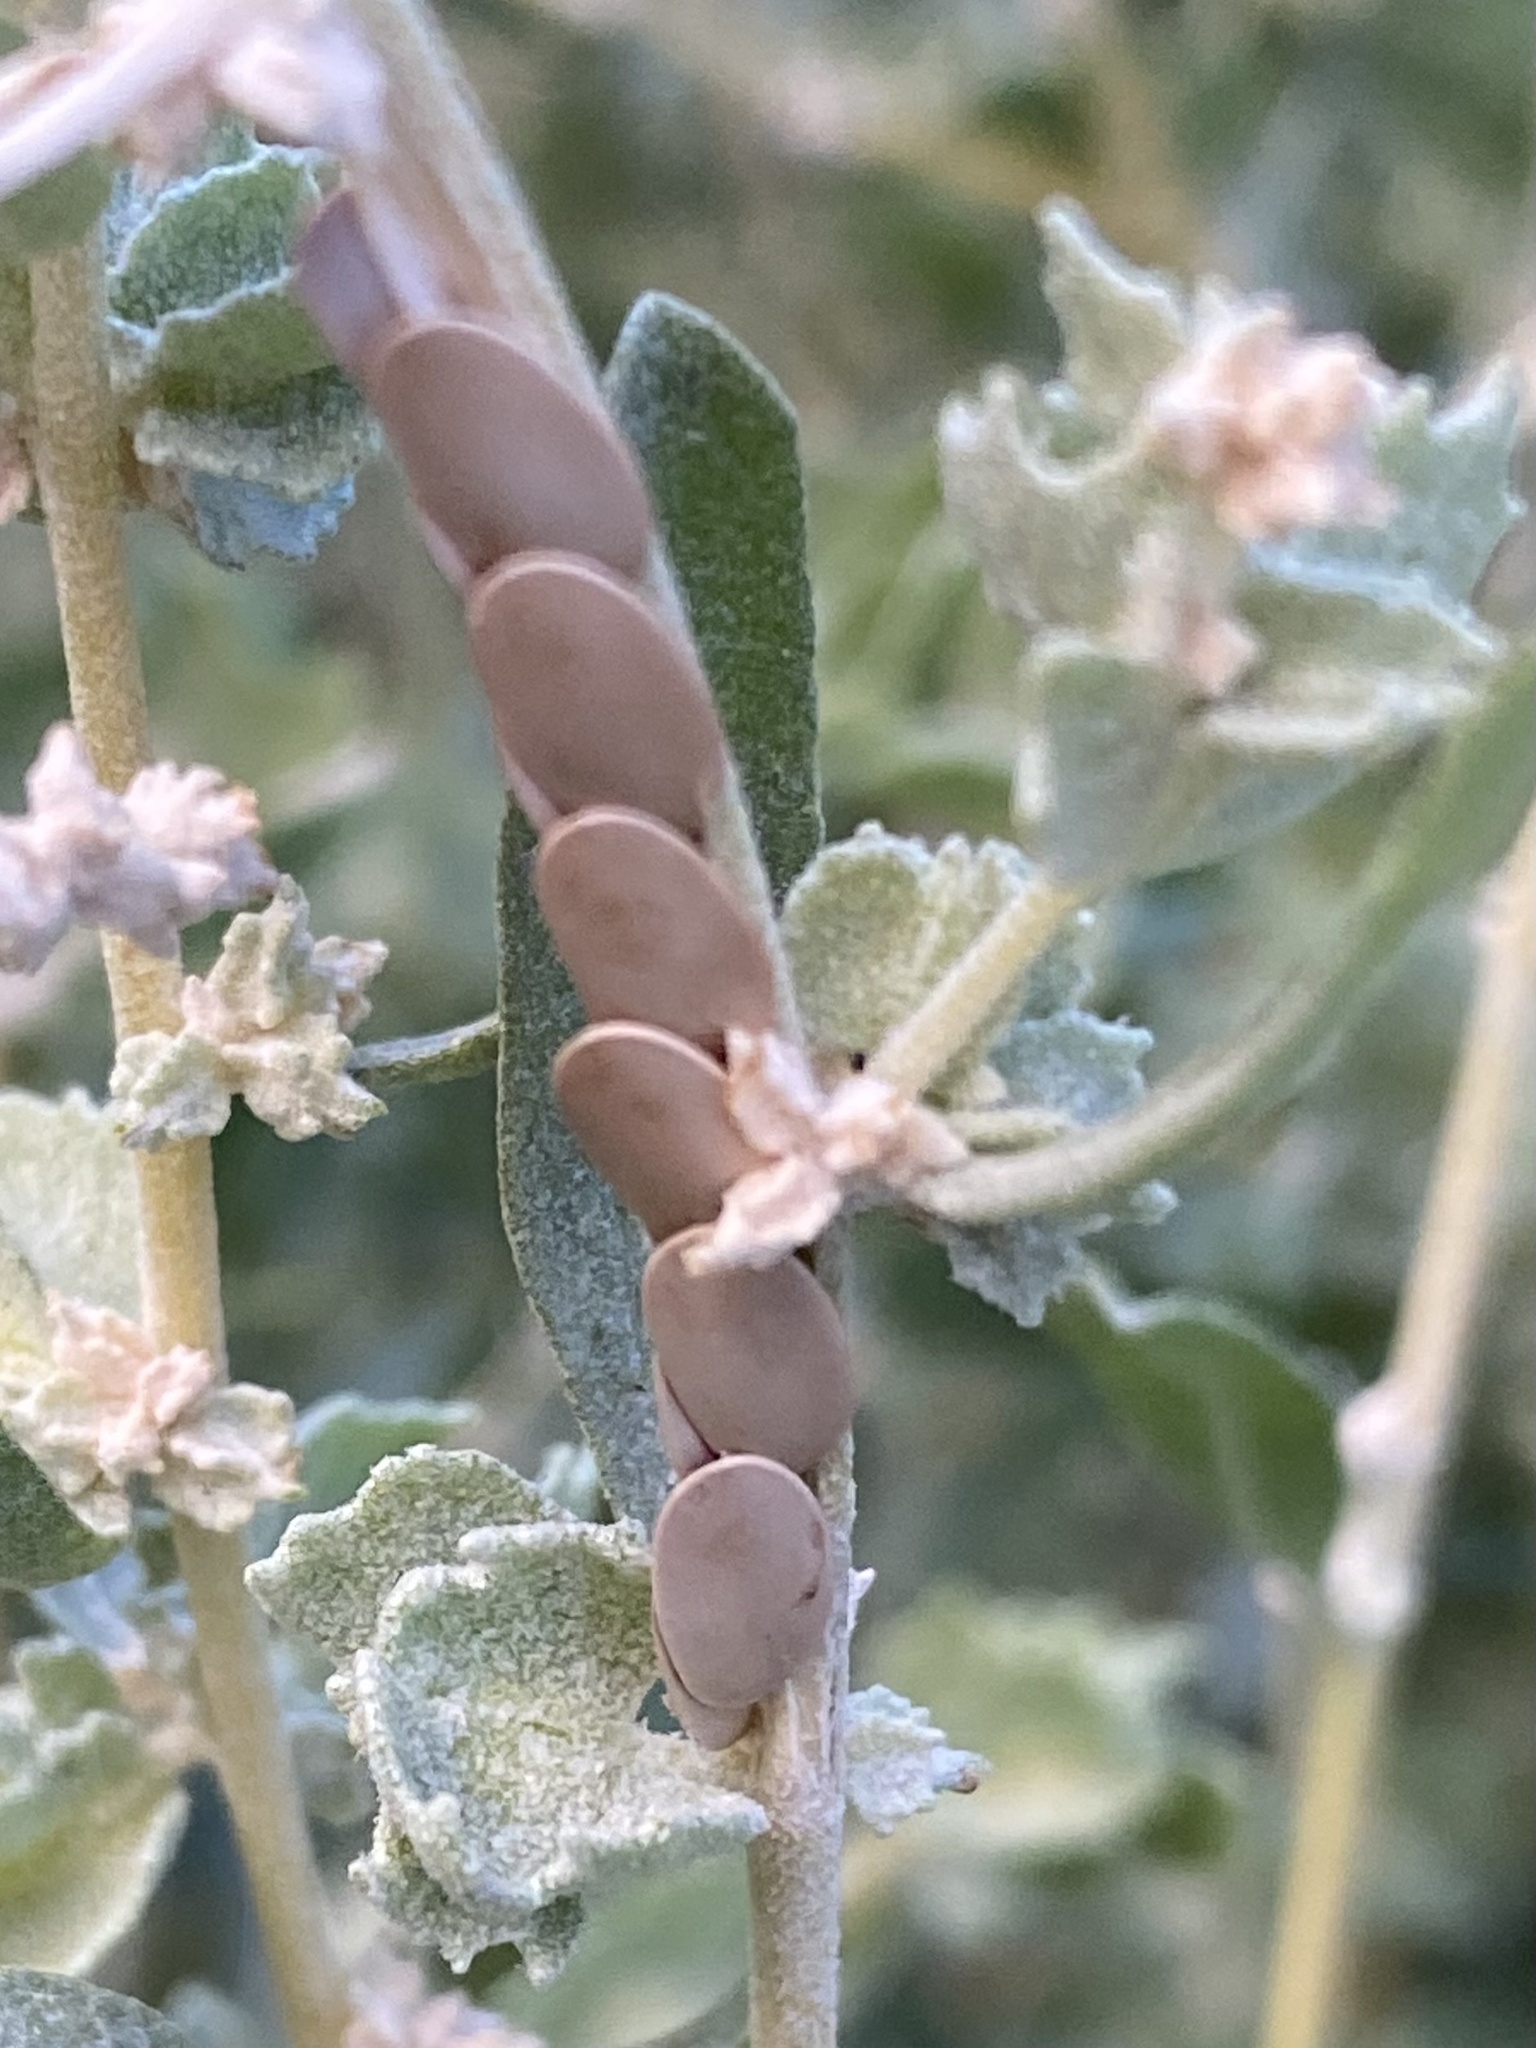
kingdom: Animalia
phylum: Arthropoda
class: Insecta
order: Orthoptera
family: Tettigoniidae
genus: Microcentrum
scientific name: Microcentrum rhombifolium
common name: Broad-winged katydid
